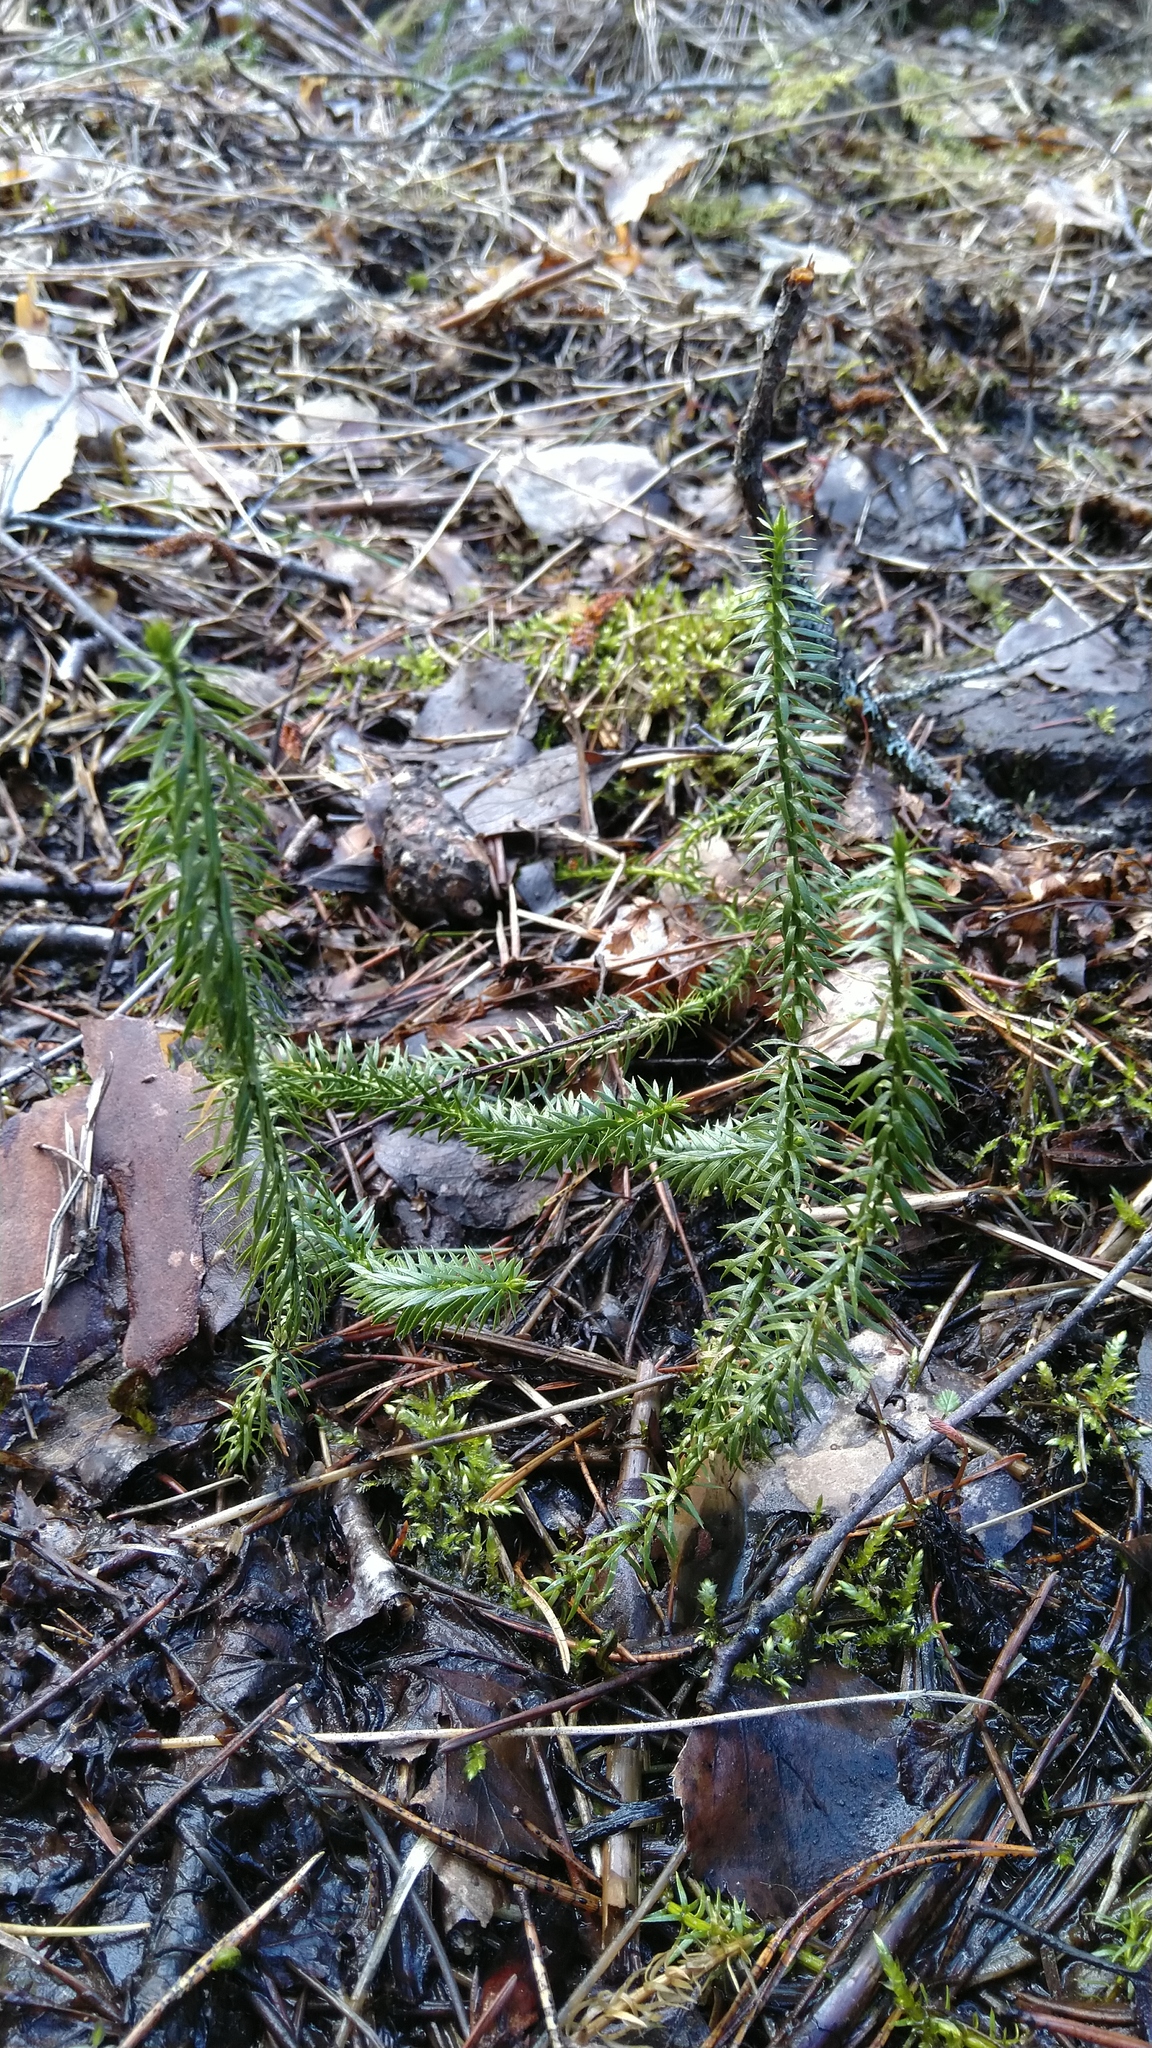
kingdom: Plantae
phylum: Tracheophyta
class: Lycopodiopsida
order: Lycopodiales
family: Lycopodiaceae
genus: Spinulum
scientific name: Spinulum annotinum
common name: Interrupted club-moss
